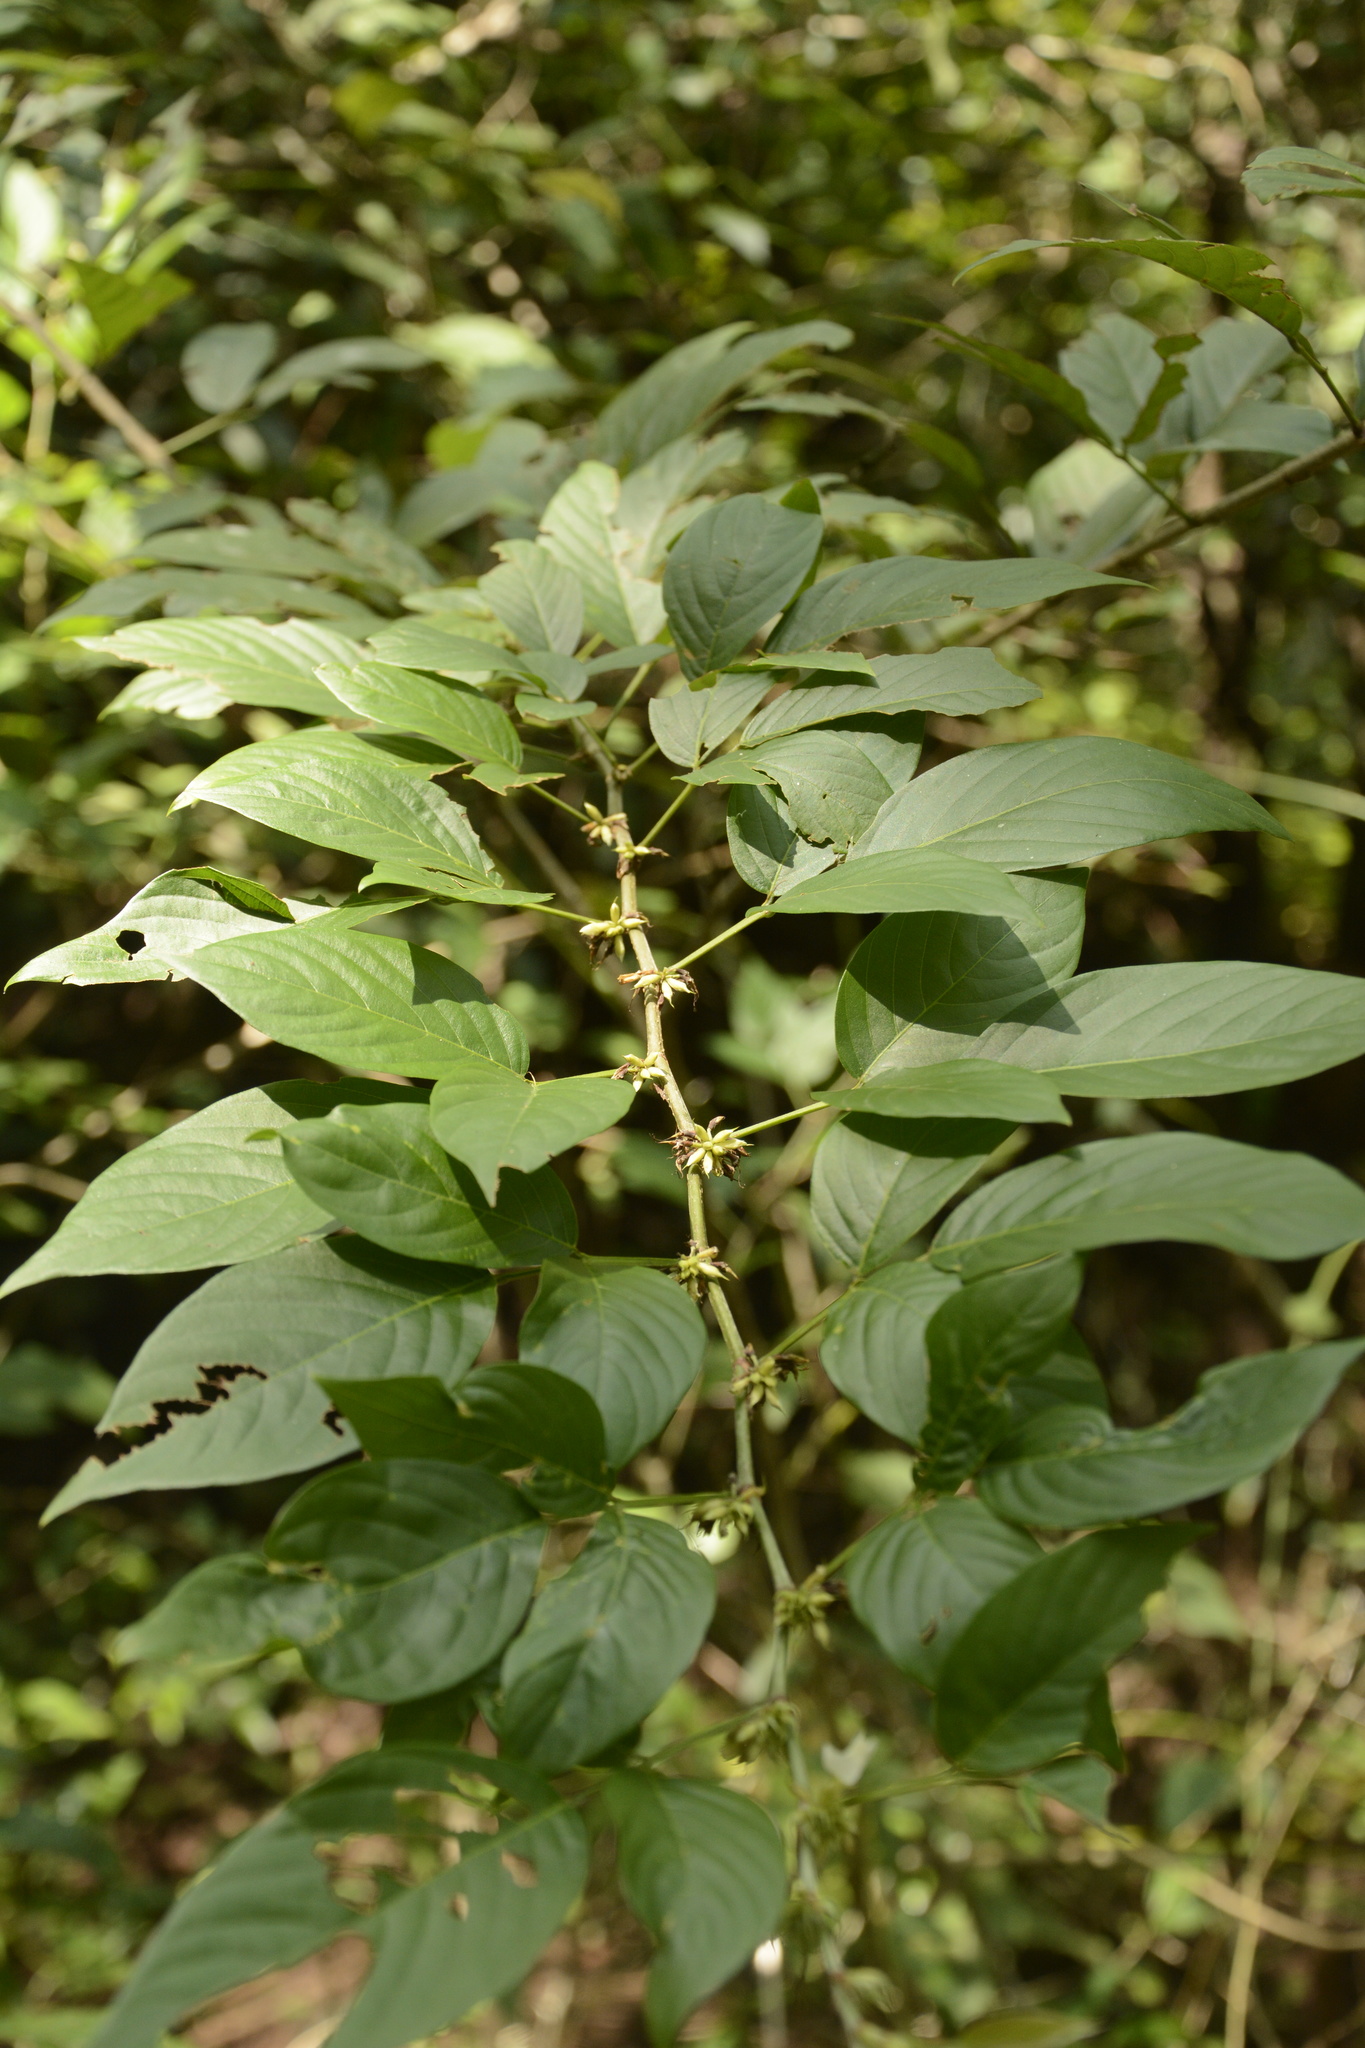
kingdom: Plantae
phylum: Tracheophyta
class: Magnoliopsida
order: Fabales
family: Fabaceae
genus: Dendrolobium
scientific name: Dendrolobium triangulare
